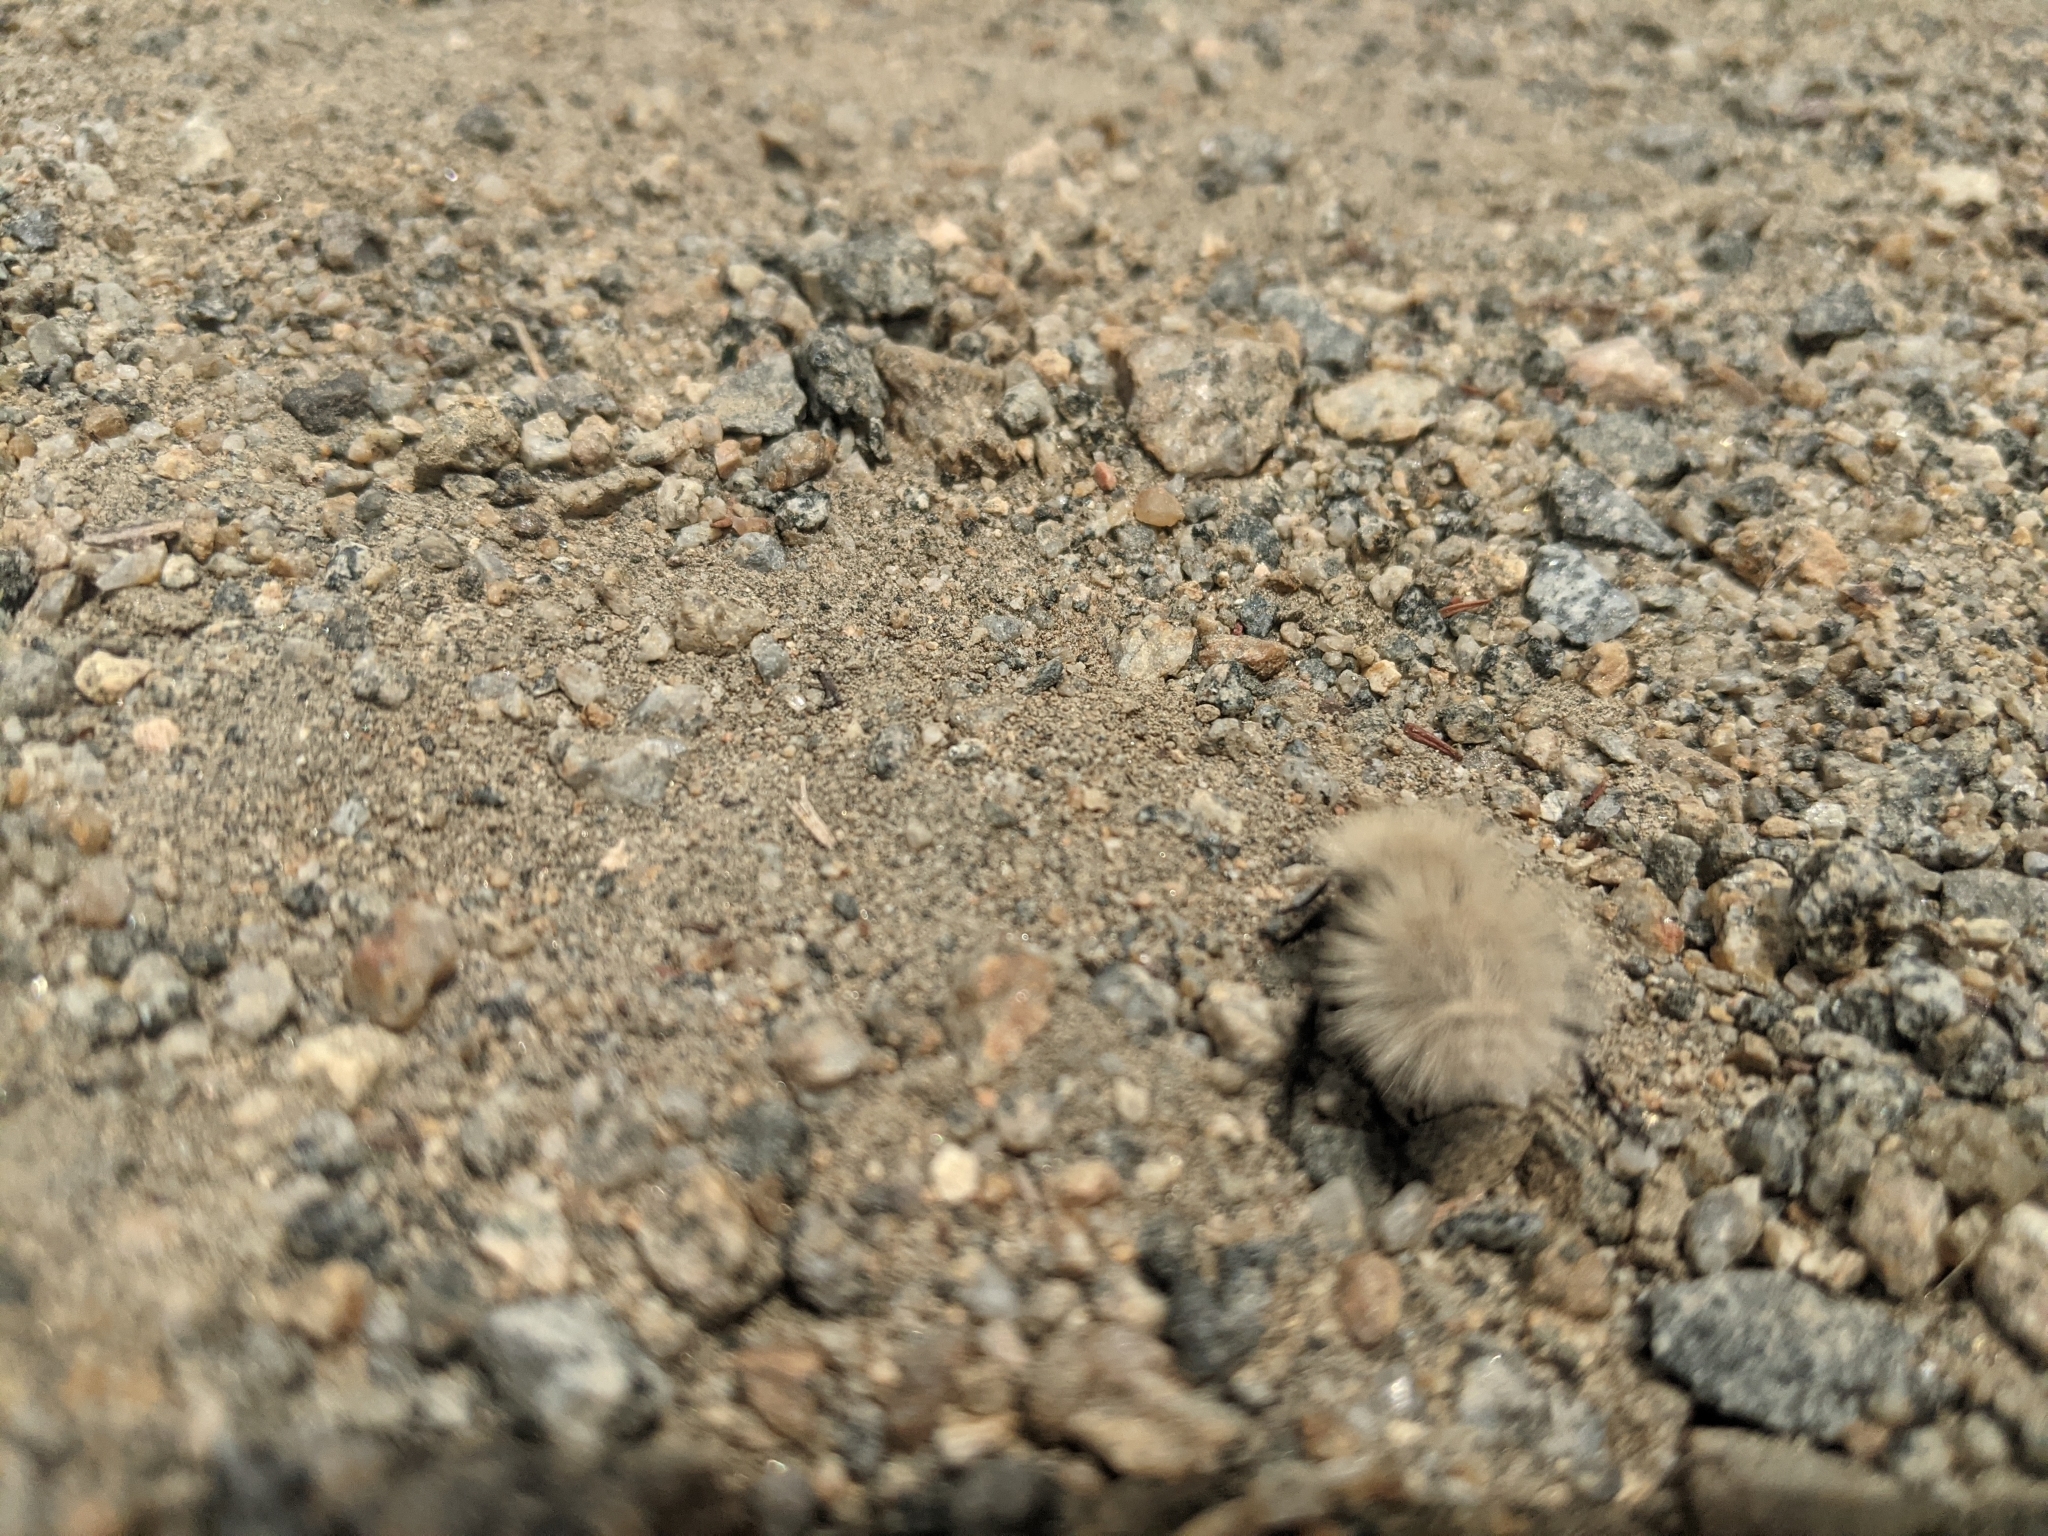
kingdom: Animalia
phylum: Arthropoda
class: Insecta
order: Hymenoptera
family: Mutillidae
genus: Dasymutilla
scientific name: Dasymutilla
